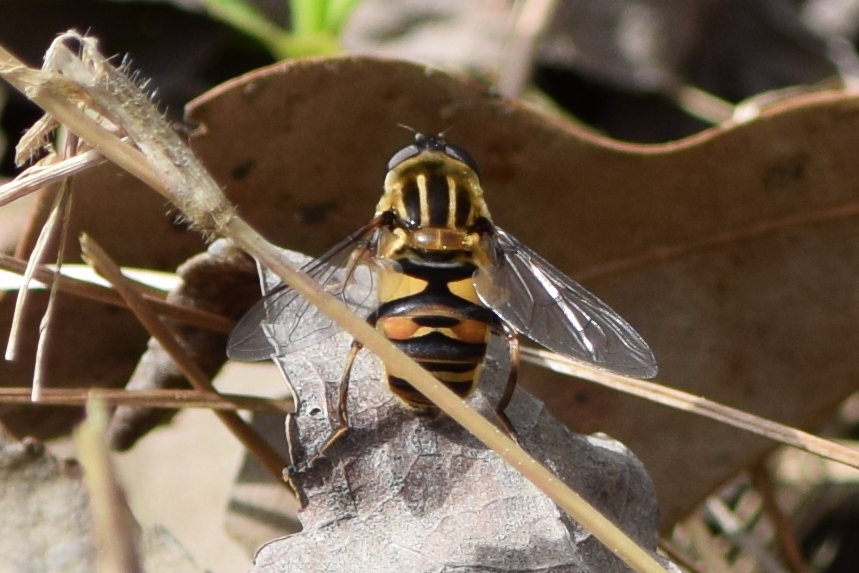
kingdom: Animalia
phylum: Arthropoda
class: Insecta
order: Diptera
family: Syrphidae
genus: Helophilus
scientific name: Helophilus fasciatus
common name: Narrow-headed marsh fly
